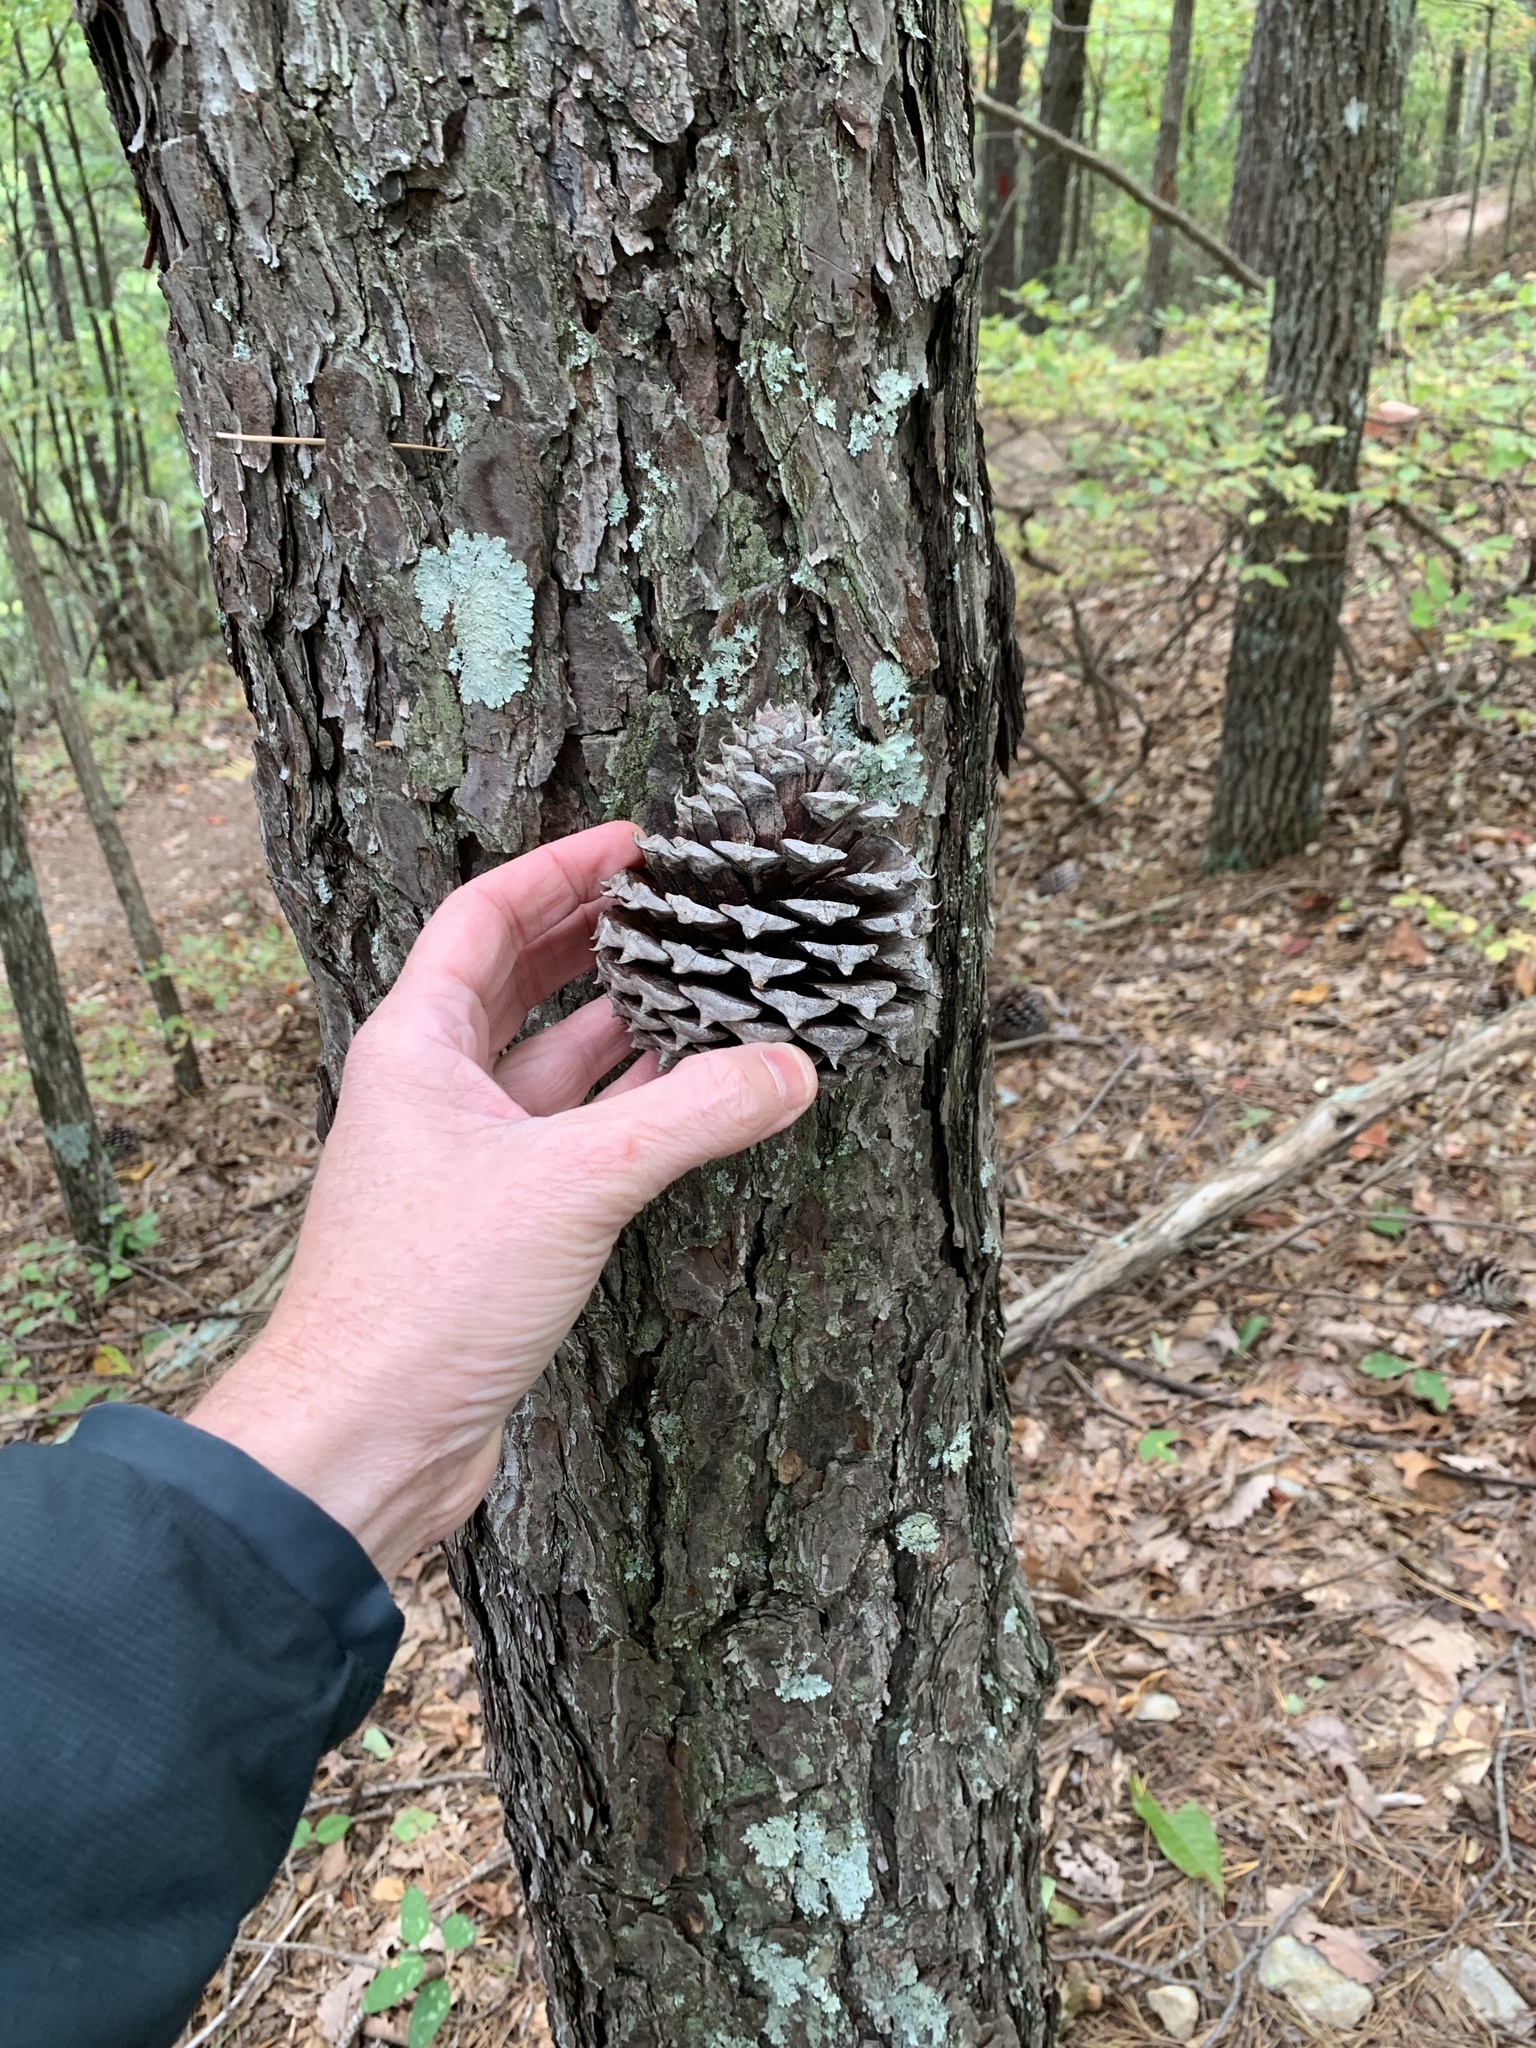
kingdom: Plantae
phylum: Tracheophyta
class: Pinopsida
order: Pinales
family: Pinaceae
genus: Pinus
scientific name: Pinus pungens
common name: Hickory pine
